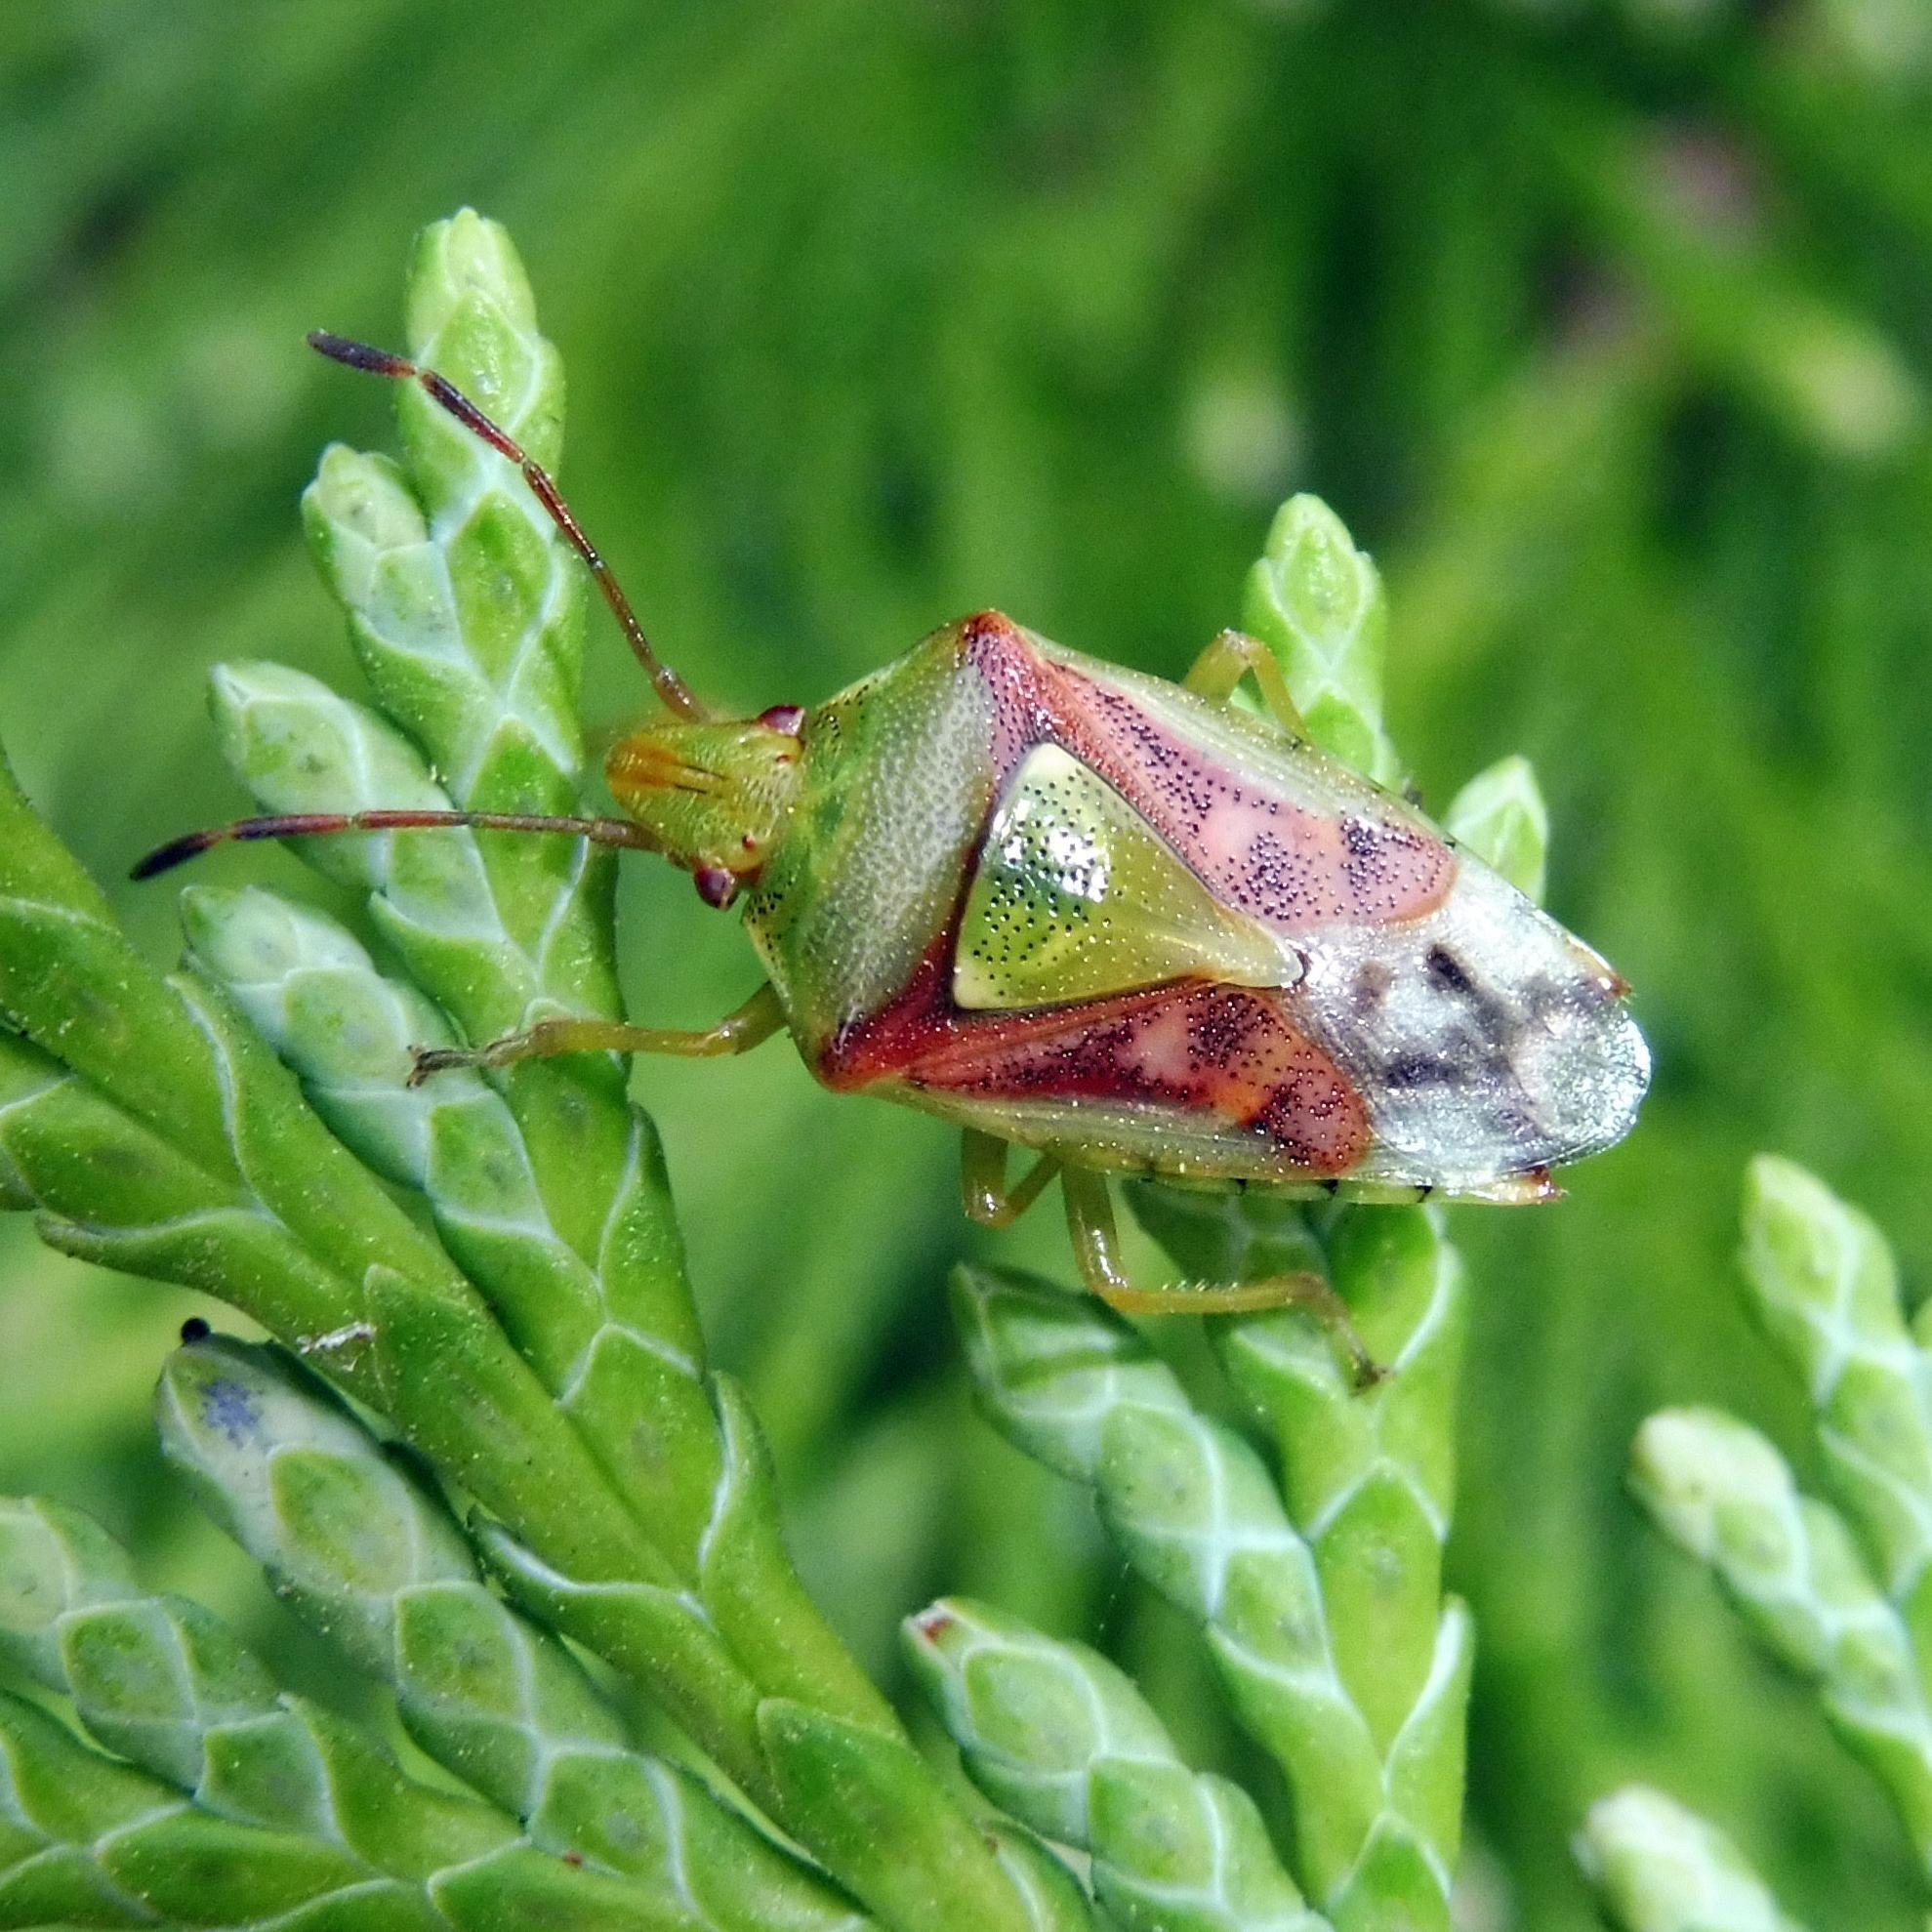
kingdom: Animalia
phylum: Arthropoda
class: Insecta
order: Hemiptera
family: Acanthosomatidae
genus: Cyphostethus
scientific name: Cyphostethus tristriatus
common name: Juniper shieldbug
